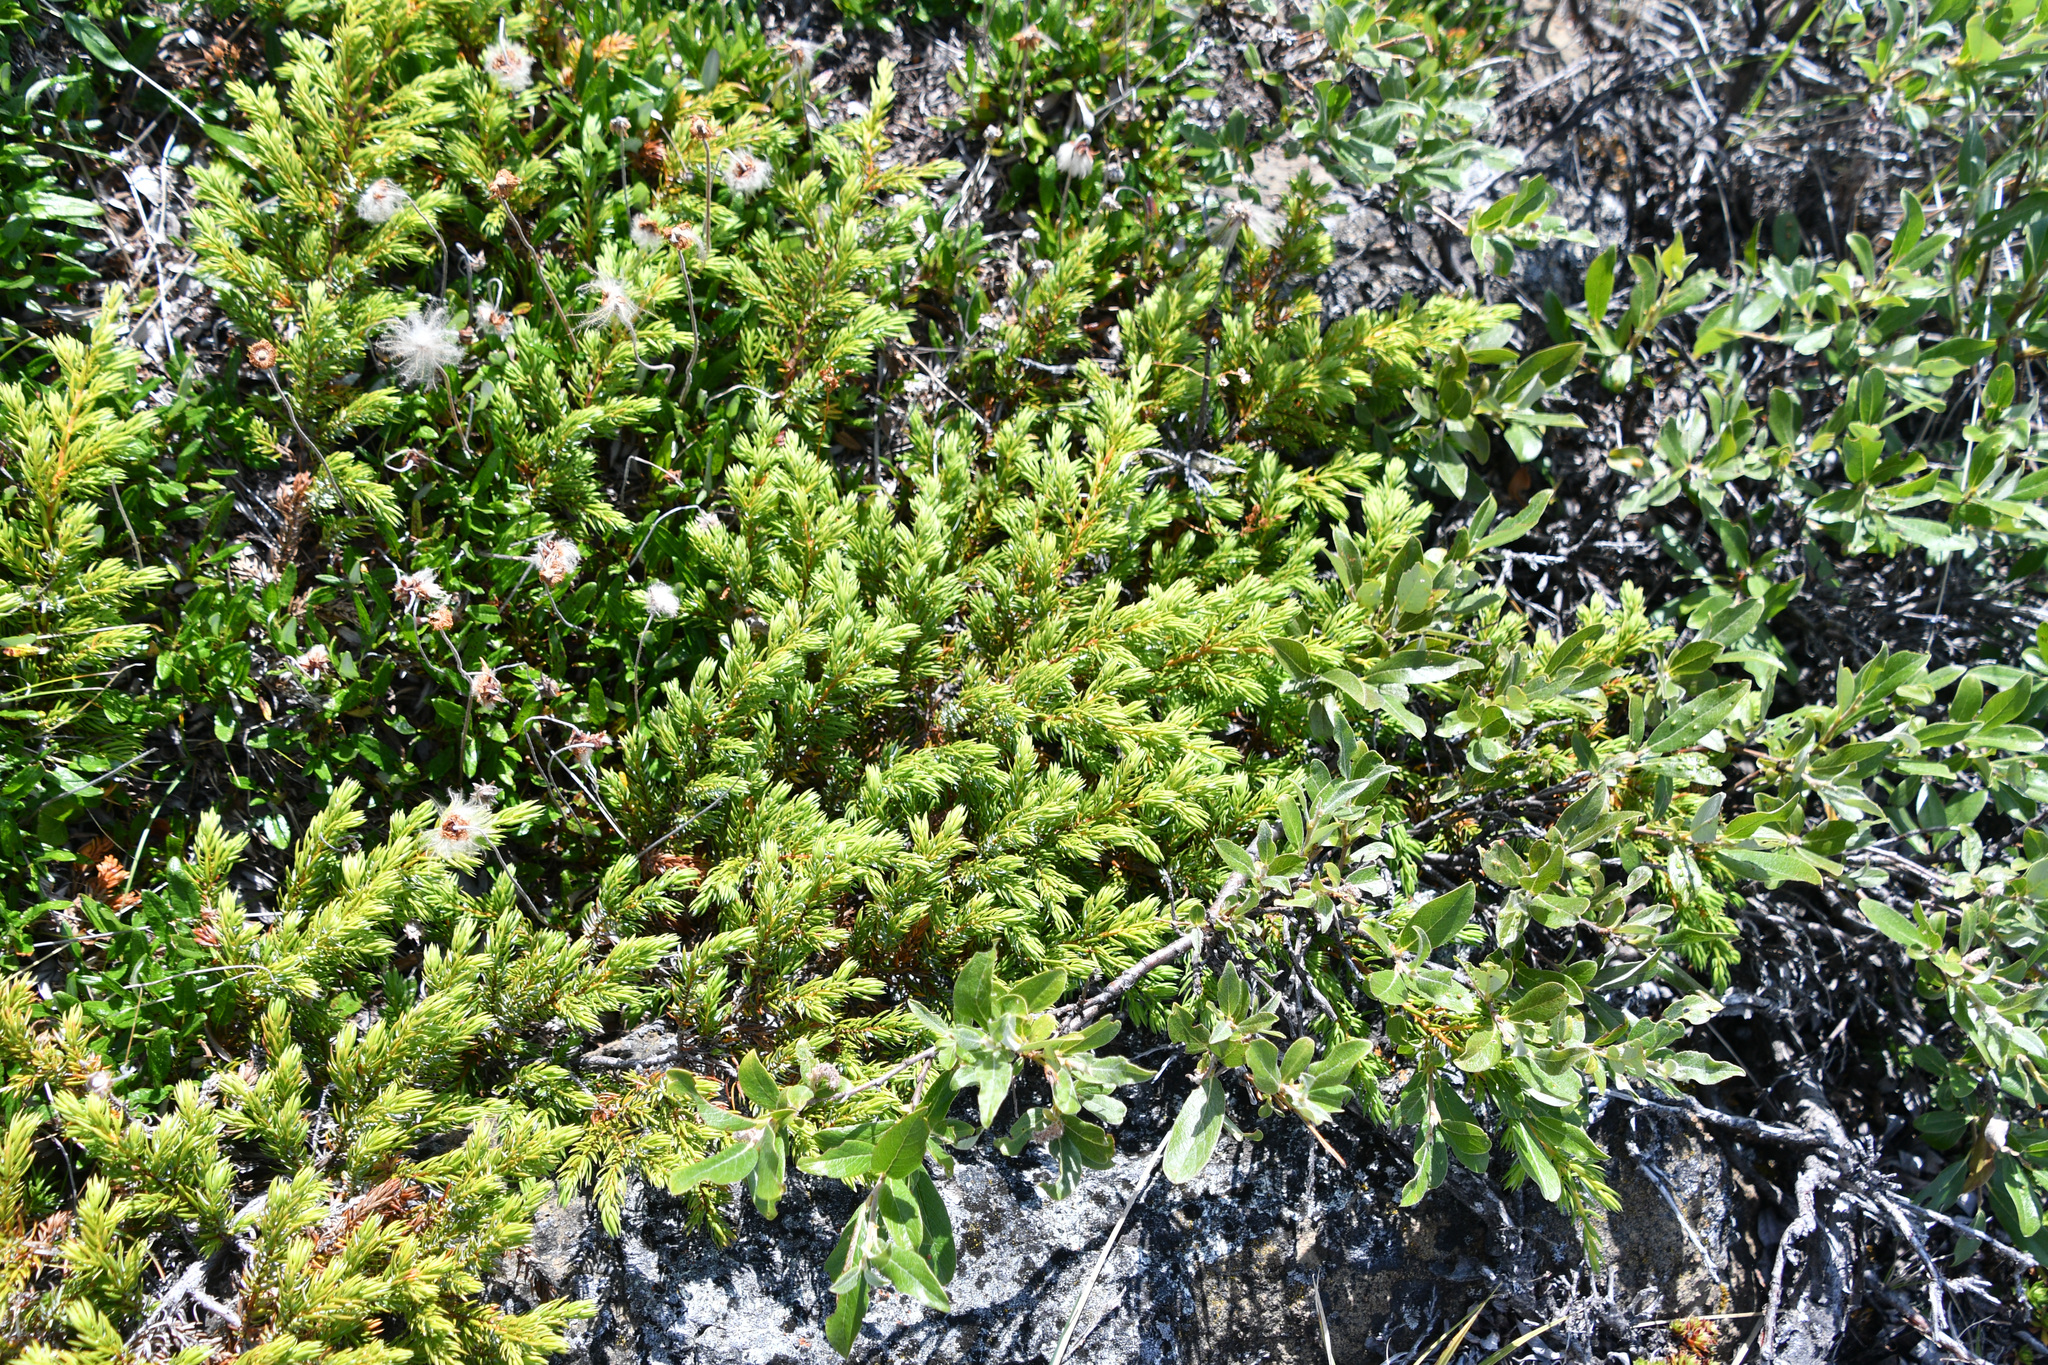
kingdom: Plantae
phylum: Tracheophyta
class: Pinopsida
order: Pinales
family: Cupressaceae
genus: Juniperus
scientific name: Juniperus communis
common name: Common juniper
